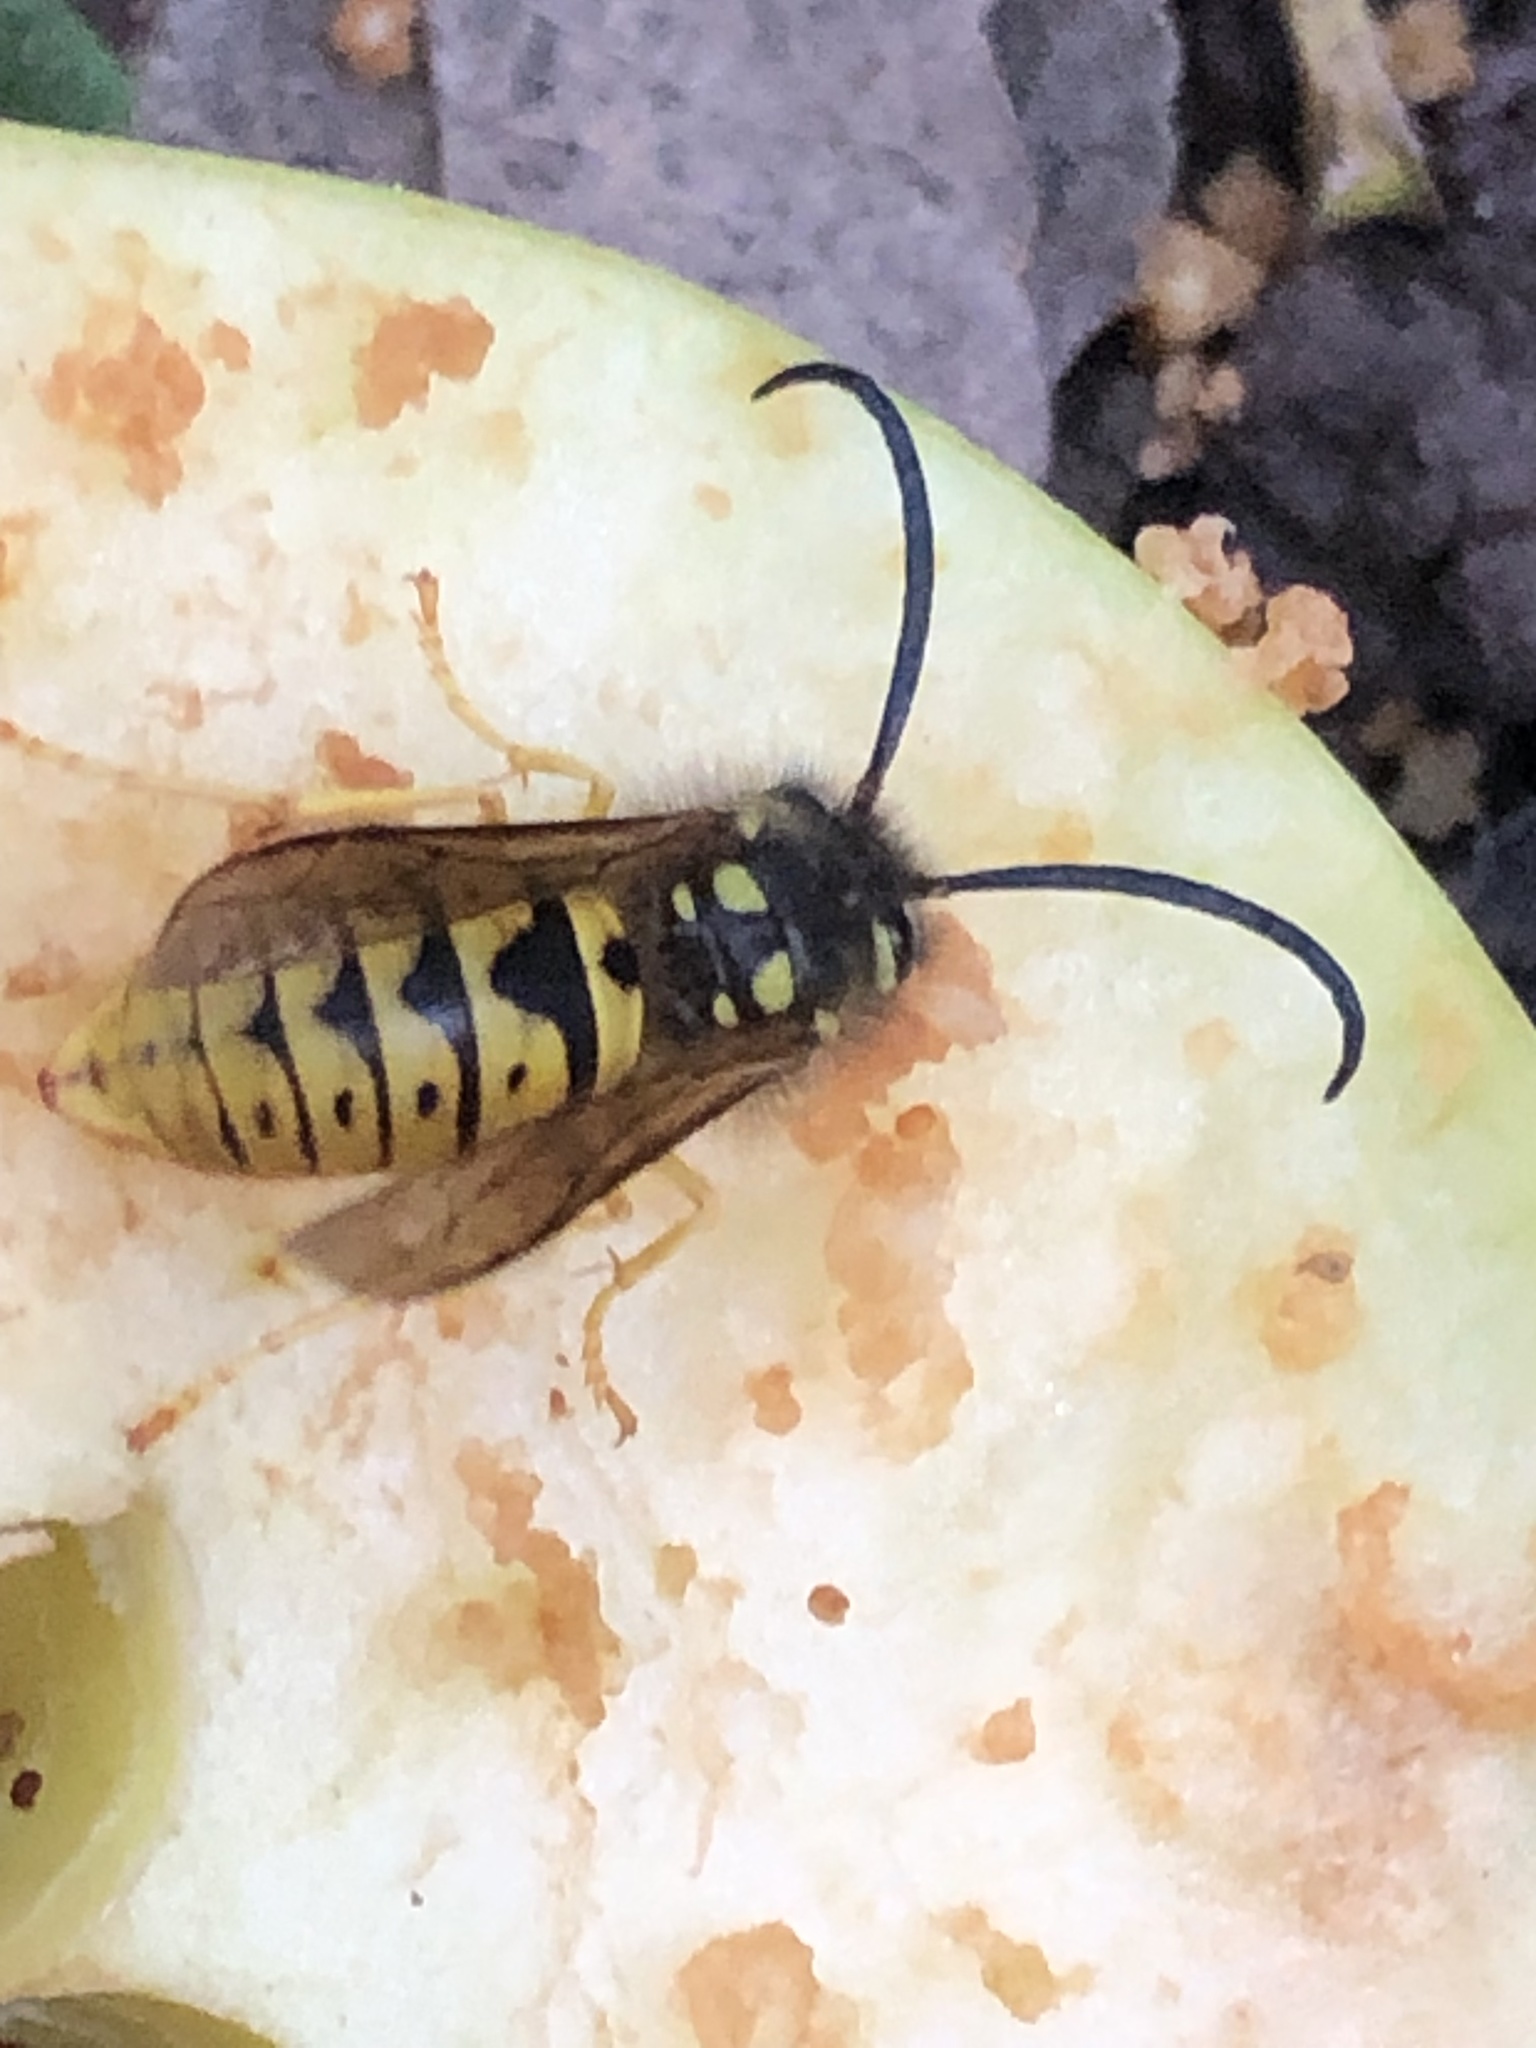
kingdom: Animalia
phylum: Arthropoda
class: Insecta
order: Hymenoptera
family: Vespidae
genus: Vespula
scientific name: Vespula germanica
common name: German wasp
